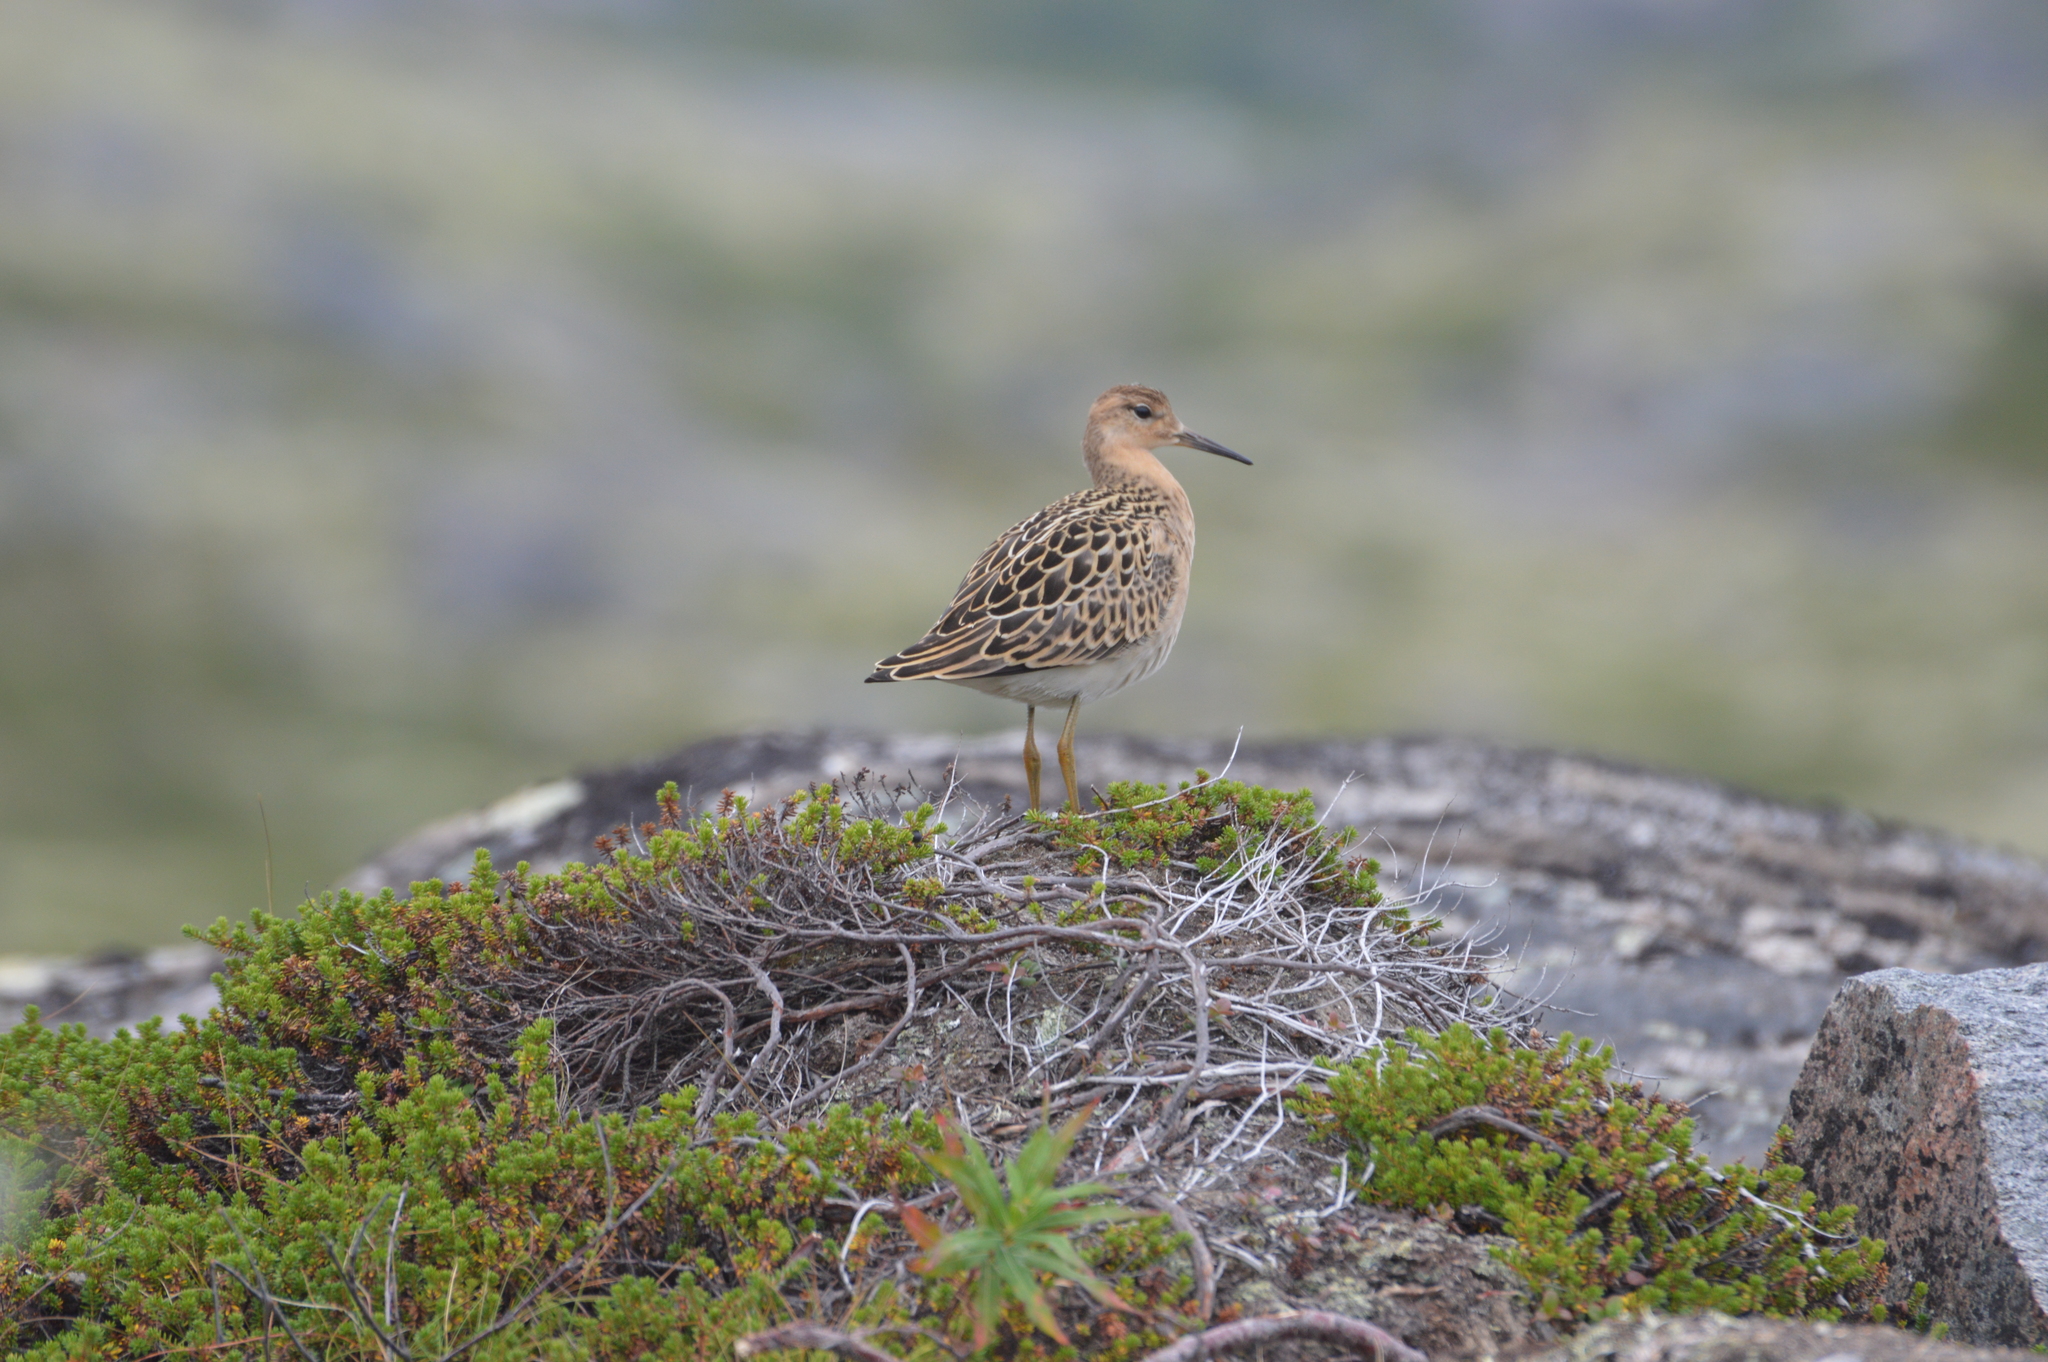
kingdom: Animalia
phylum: Chordata
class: Aves
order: Charadriiformes
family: Scolopacidae
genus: Calidris
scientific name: Calidris pugnax
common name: Ruff
